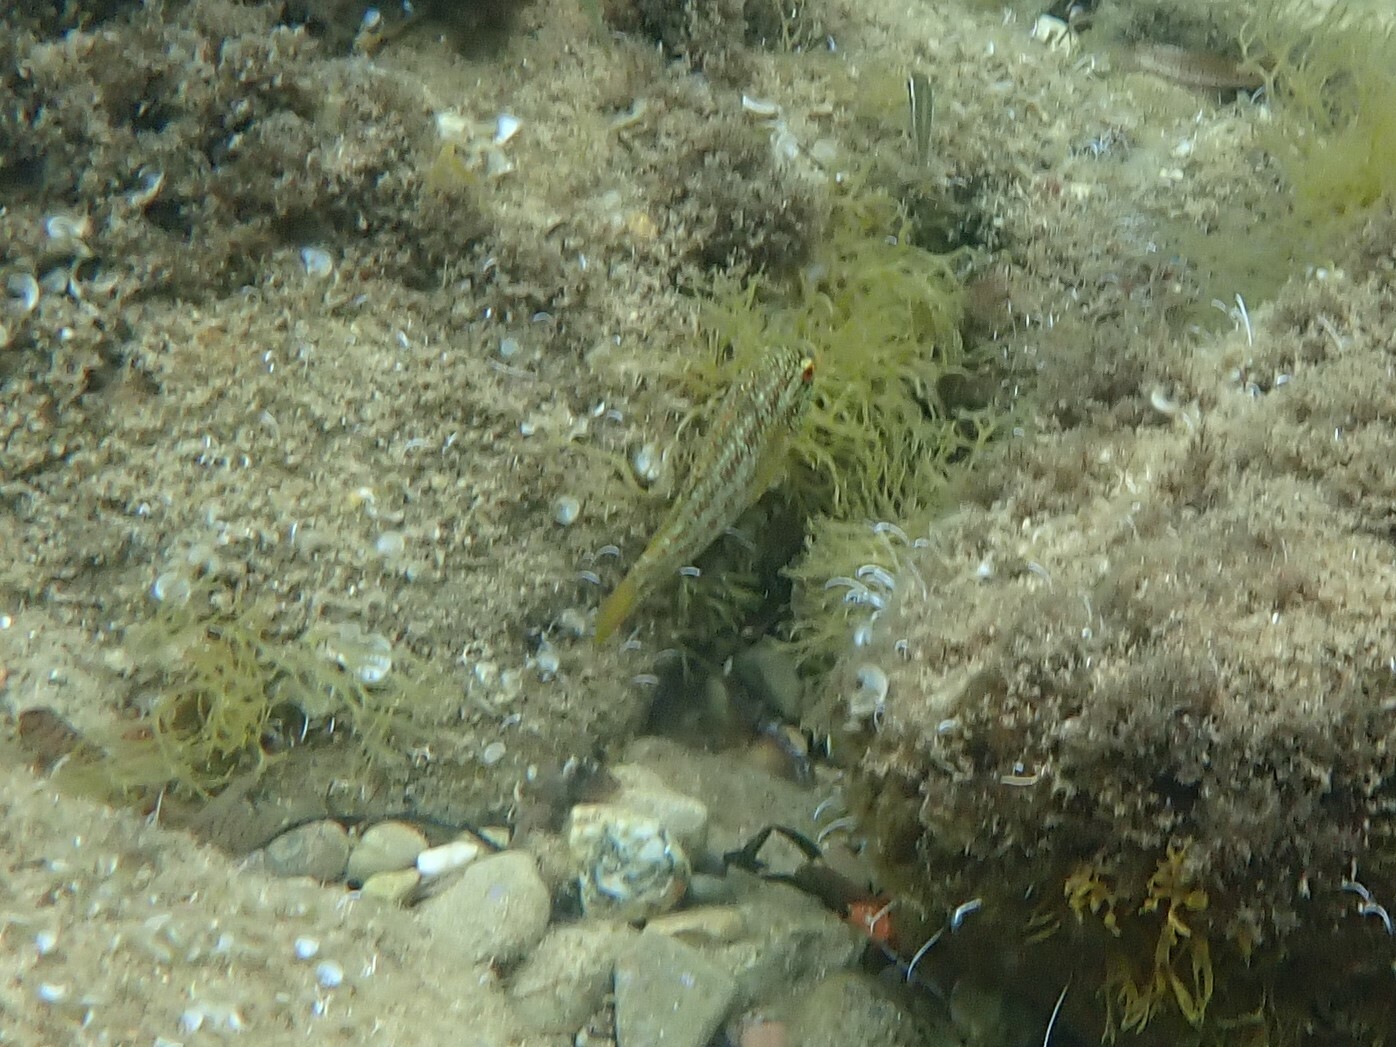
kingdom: Animalia
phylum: Chordata
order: Perciformes
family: Labridae
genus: Symphodus
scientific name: Symphodus roissali
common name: Five-spotted wrasse
